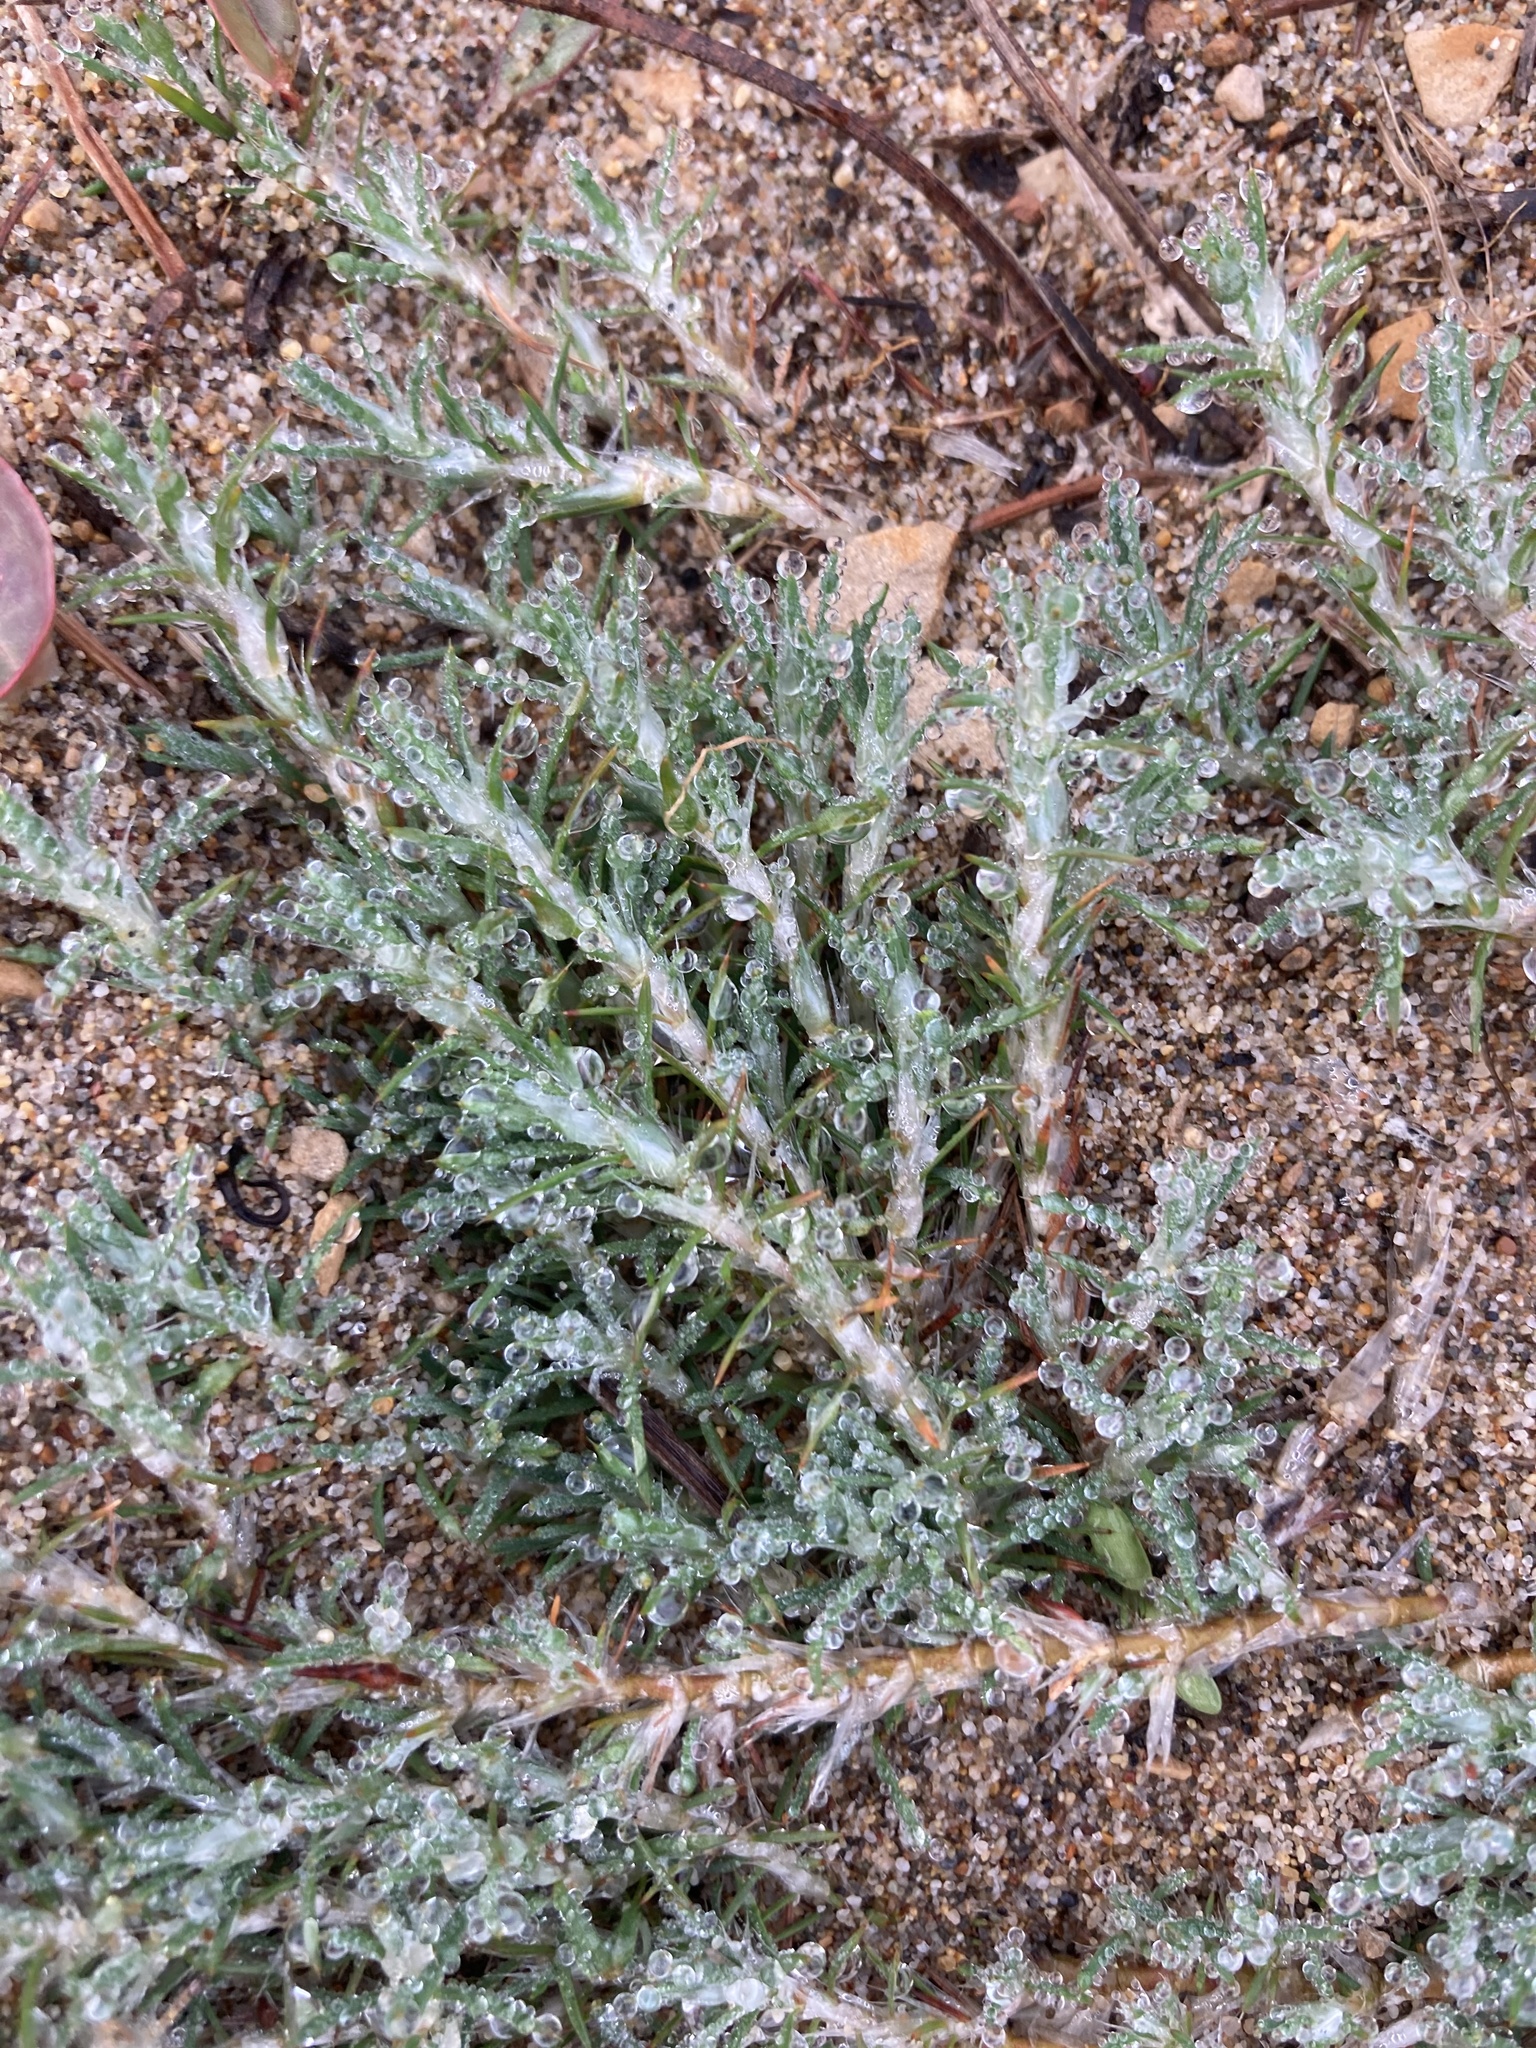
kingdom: Plantae
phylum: Tracheophyta
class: Magnoliopsida
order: Caryophyllales
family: Caryophyllaceae
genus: Cardionema
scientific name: Cardionema ramosissima
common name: Sandcarpet
